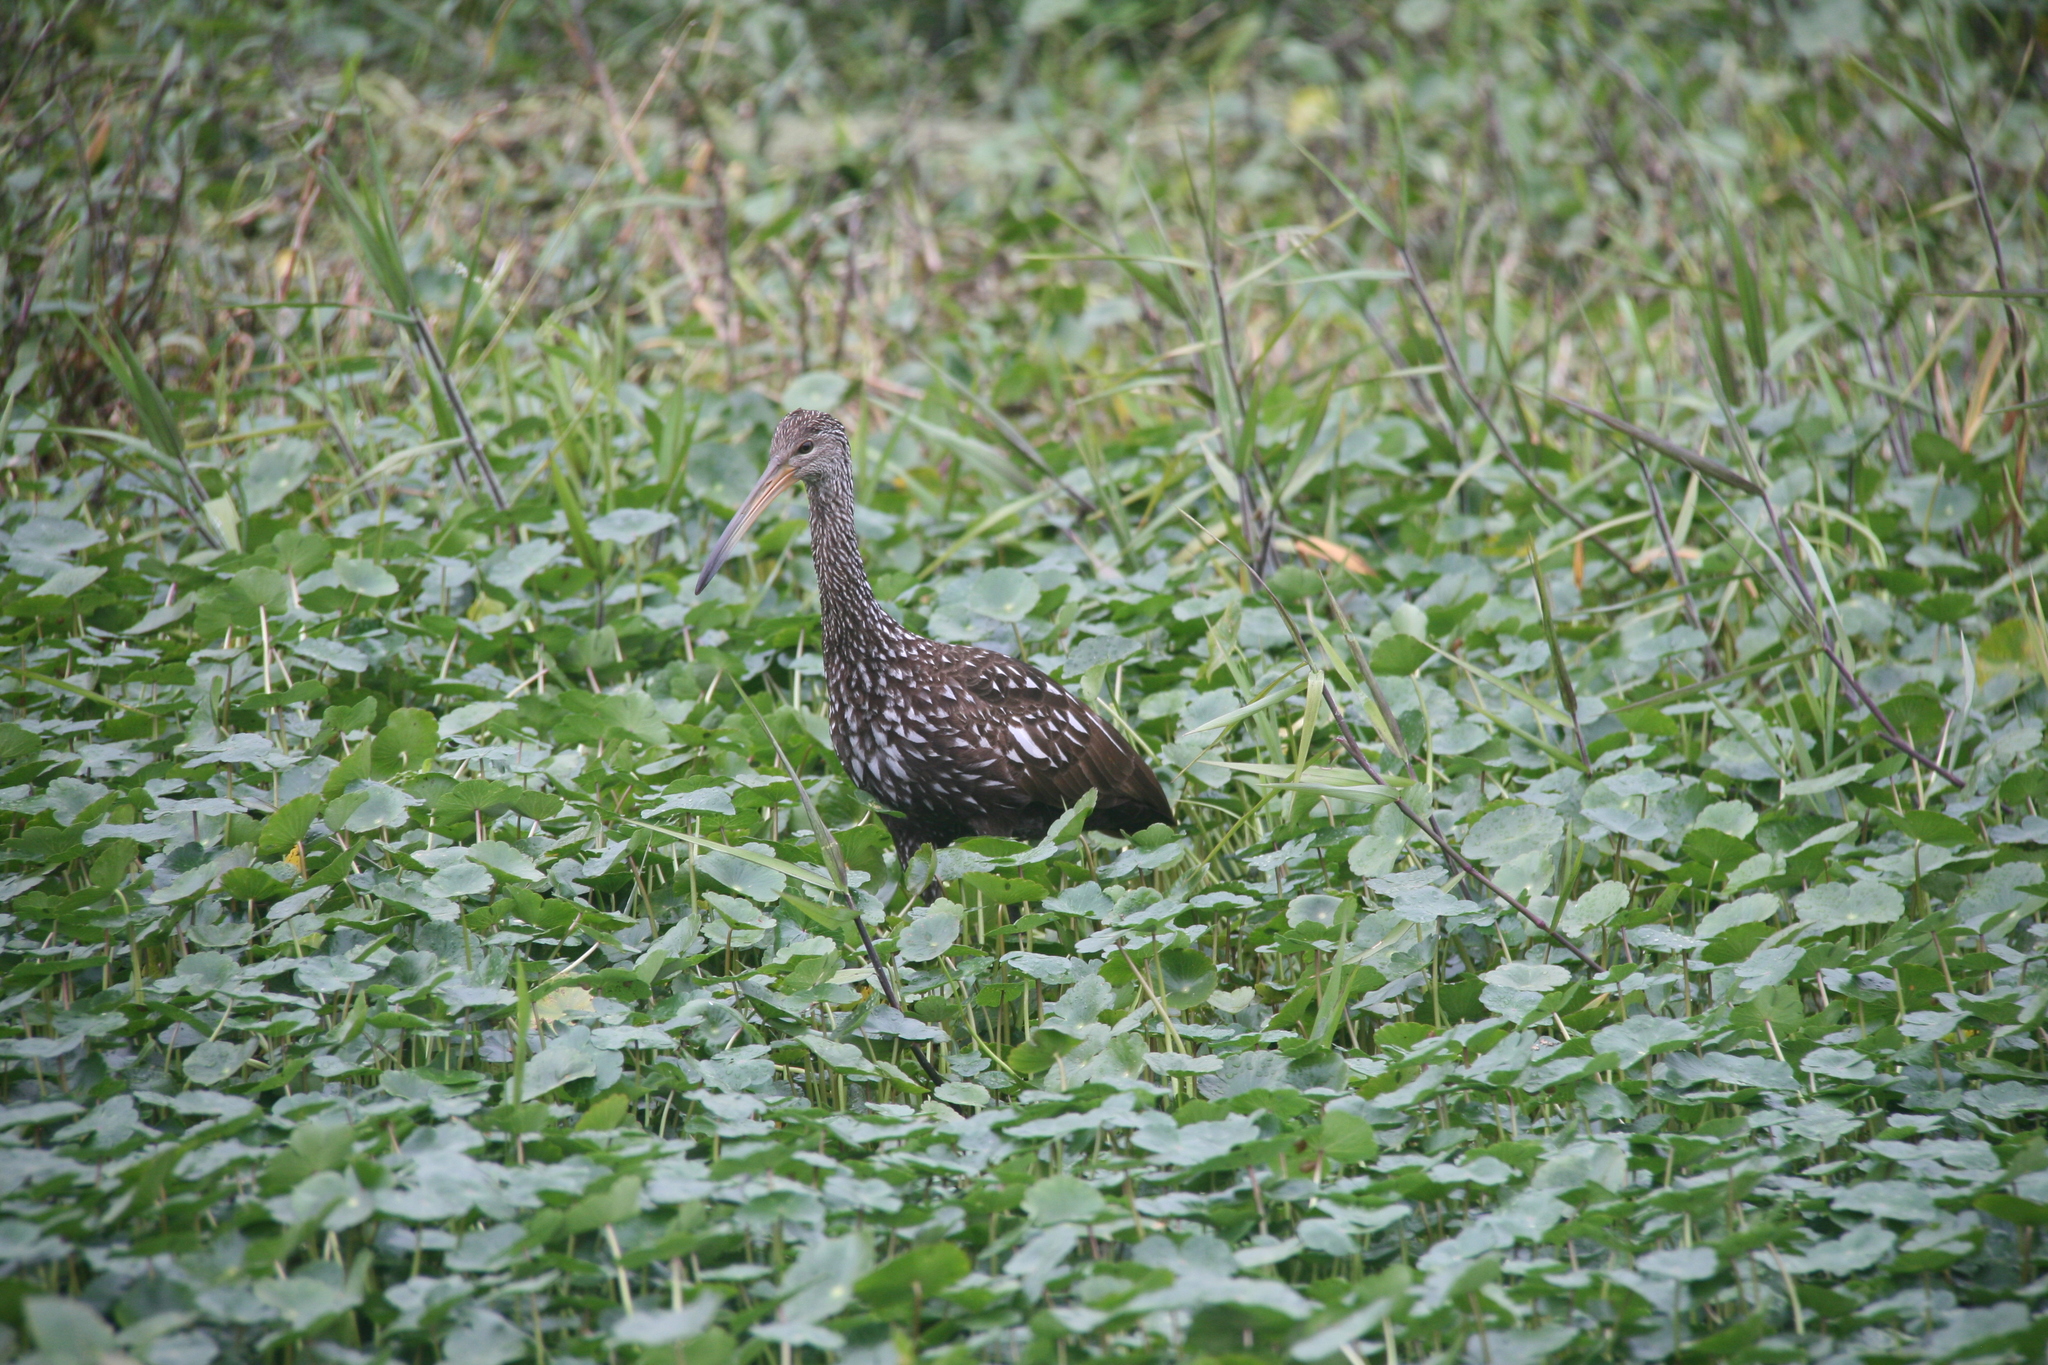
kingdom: Animalia
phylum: Chordata
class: Aves
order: Gruiformes
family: Aramidae
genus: Aramus
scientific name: Aramus guarauna
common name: Limpkin
